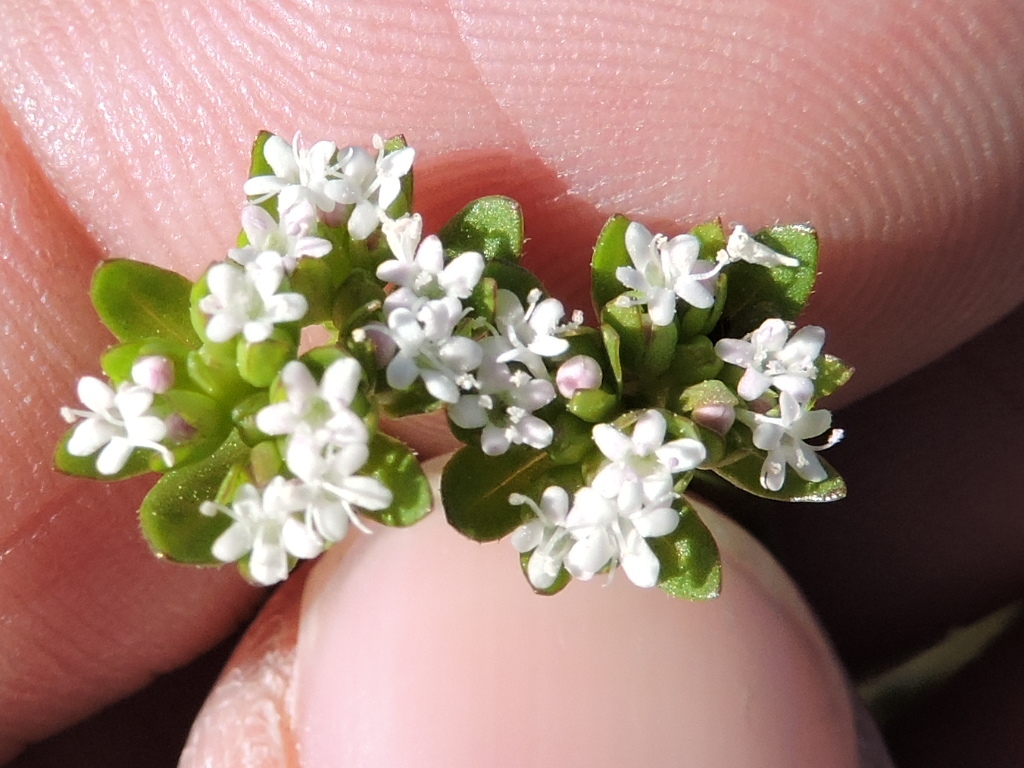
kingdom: Plantae
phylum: Tracheophyta
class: Magnoliopsida
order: Dipsacales
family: Caprifoliaceae
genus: Valerianella
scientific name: Valerianella radiata
